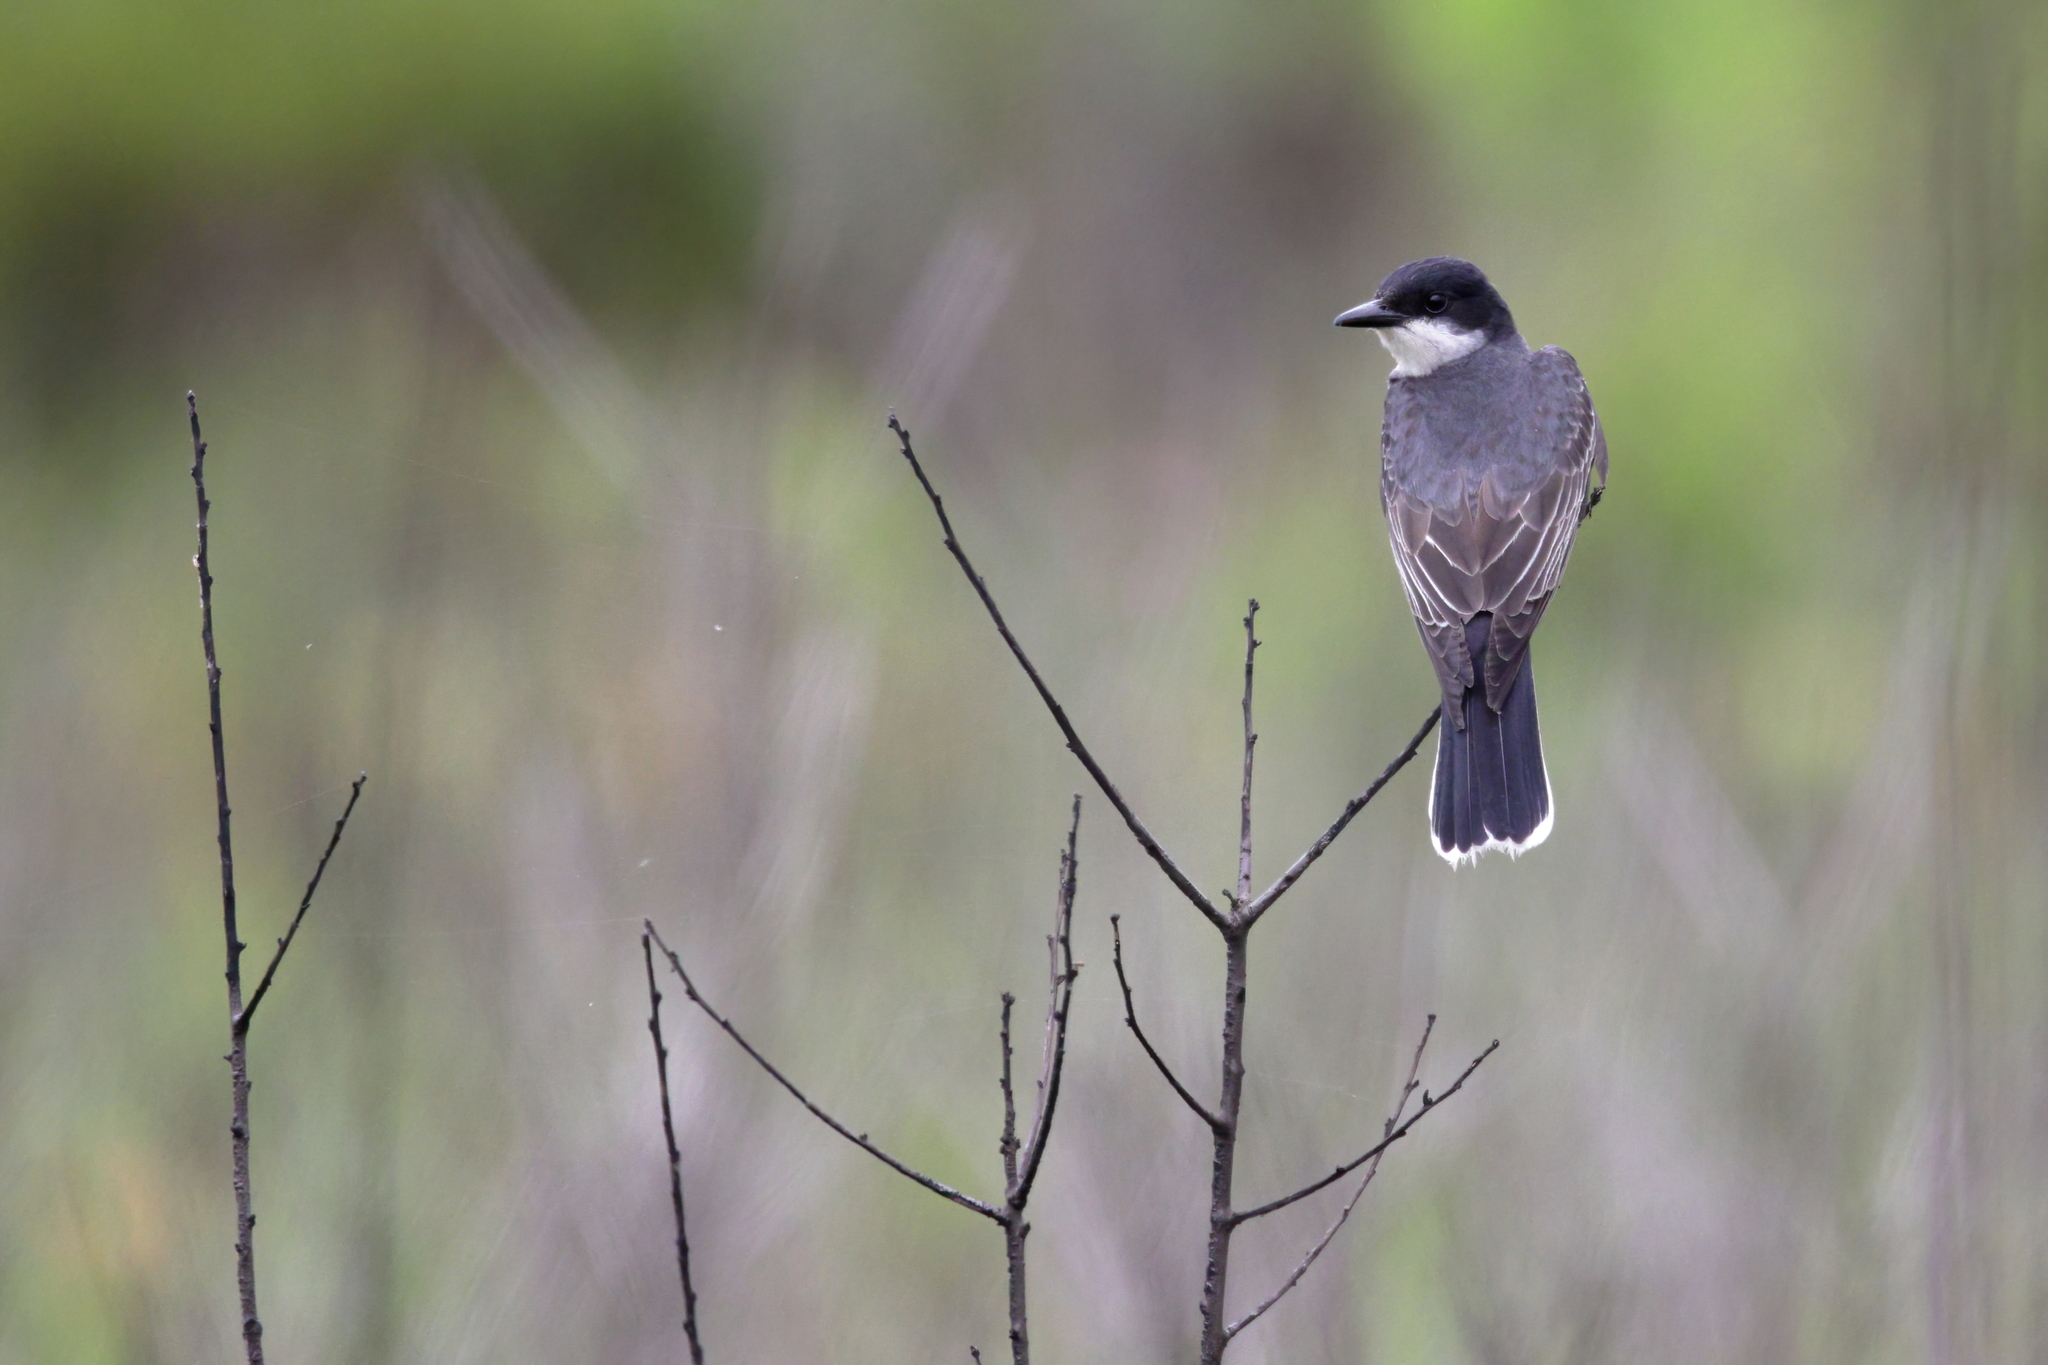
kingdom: Animalia
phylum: Chordata
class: Aves
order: Passeriformes
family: Tyrannidae
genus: Tyrannus
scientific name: Tyrannus tyrannus
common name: Eastern kingbird
